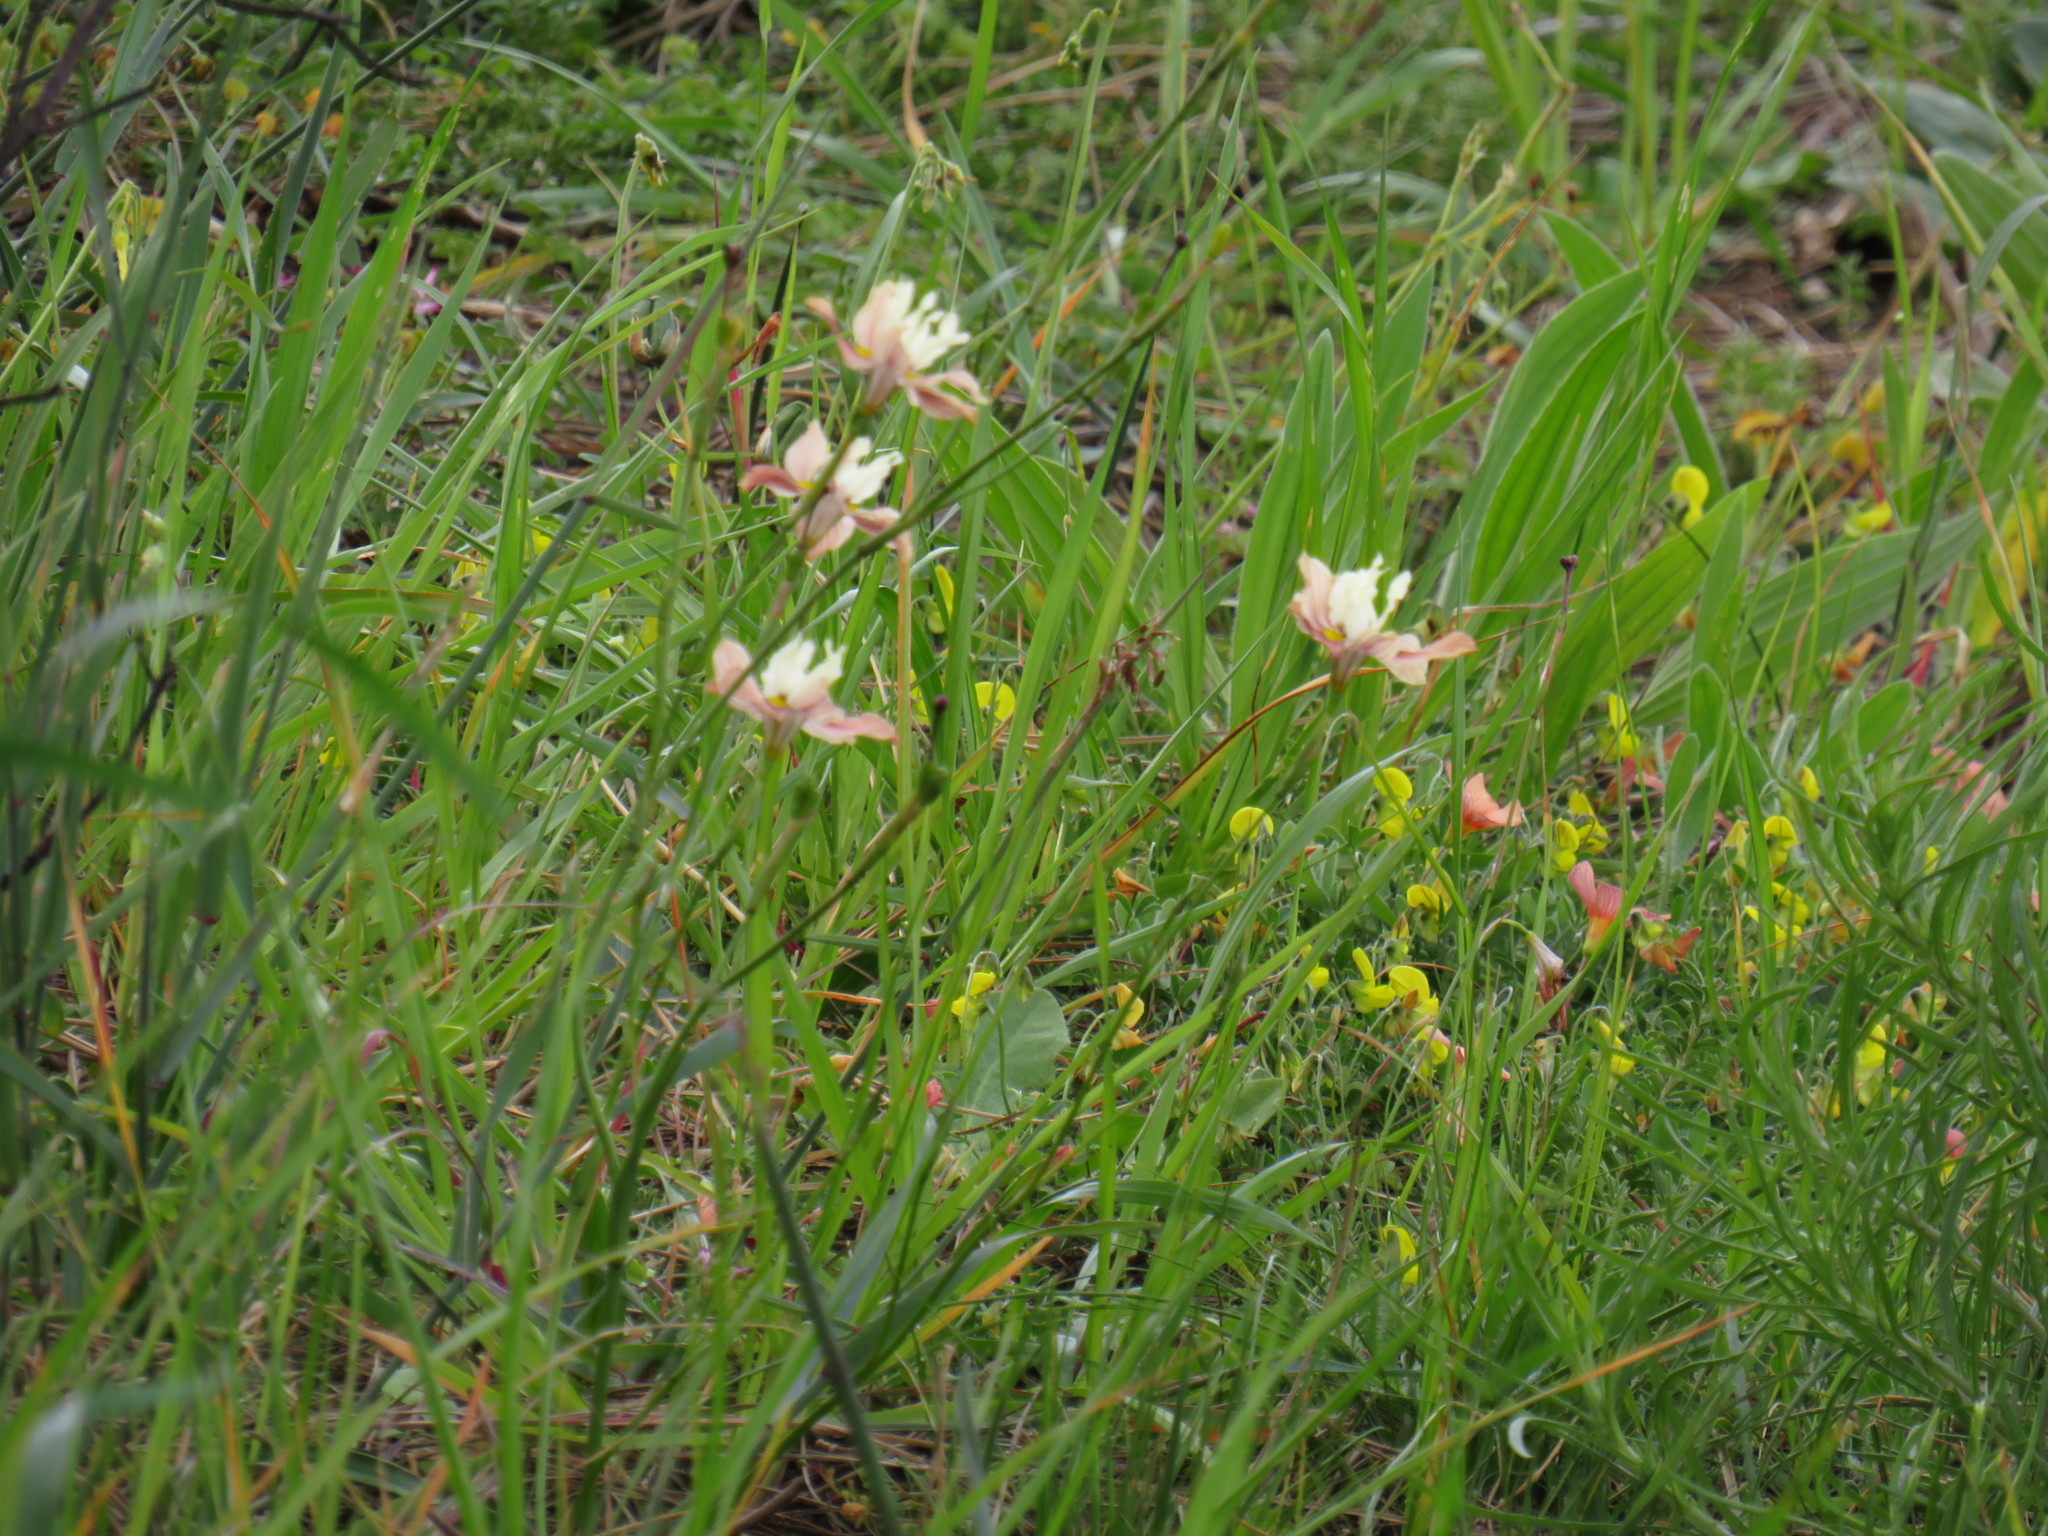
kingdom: Plantae
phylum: Tracheophyta
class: Liliopsida
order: Asparagales
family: Iridaceae
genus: Moraea
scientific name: Moraea gawleri
